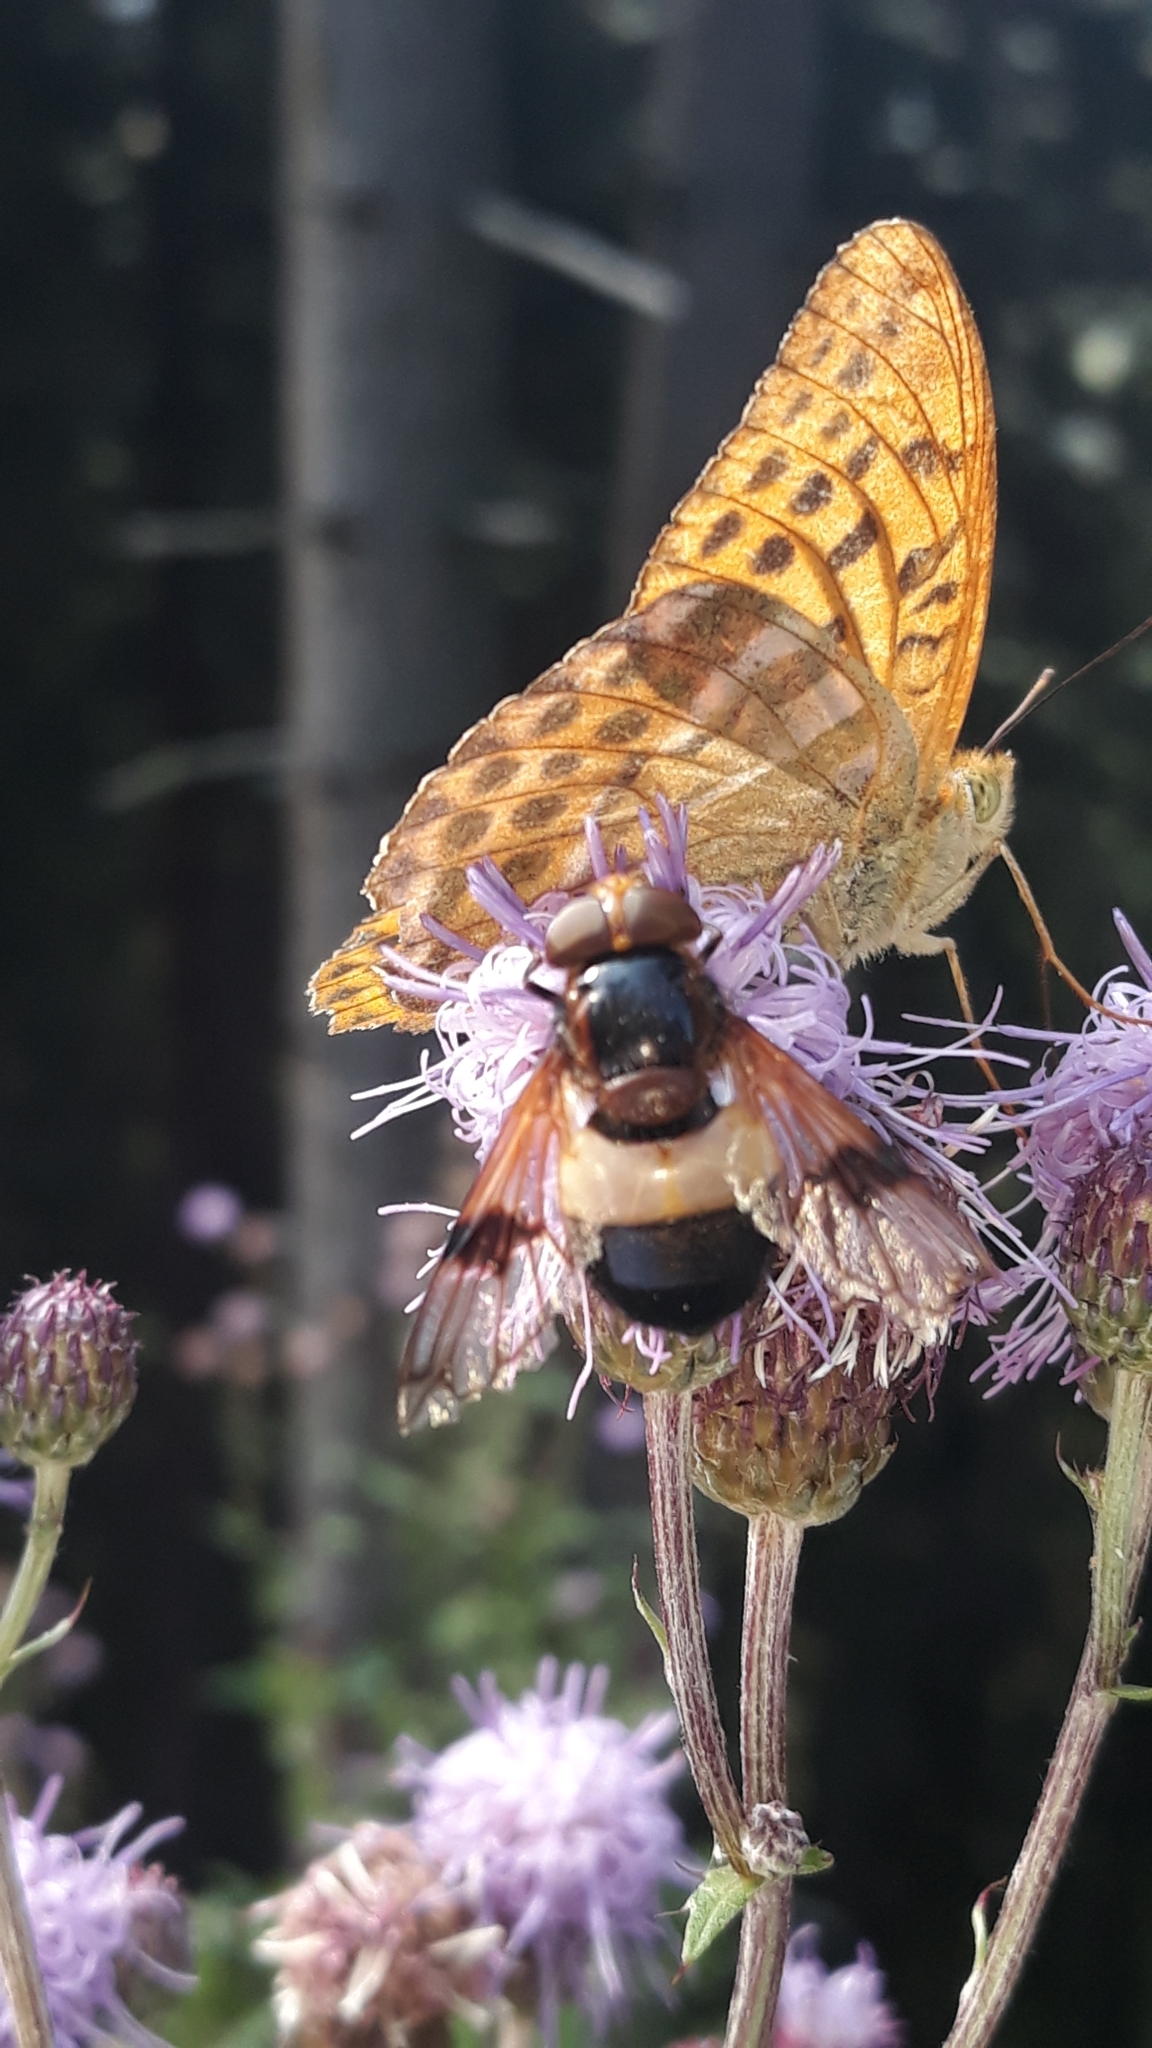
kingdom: Animalia
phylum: Arthropoda
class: Insecta
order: Diptera
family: Syrphidae
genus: Volucella
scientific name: Volucella pellucens
